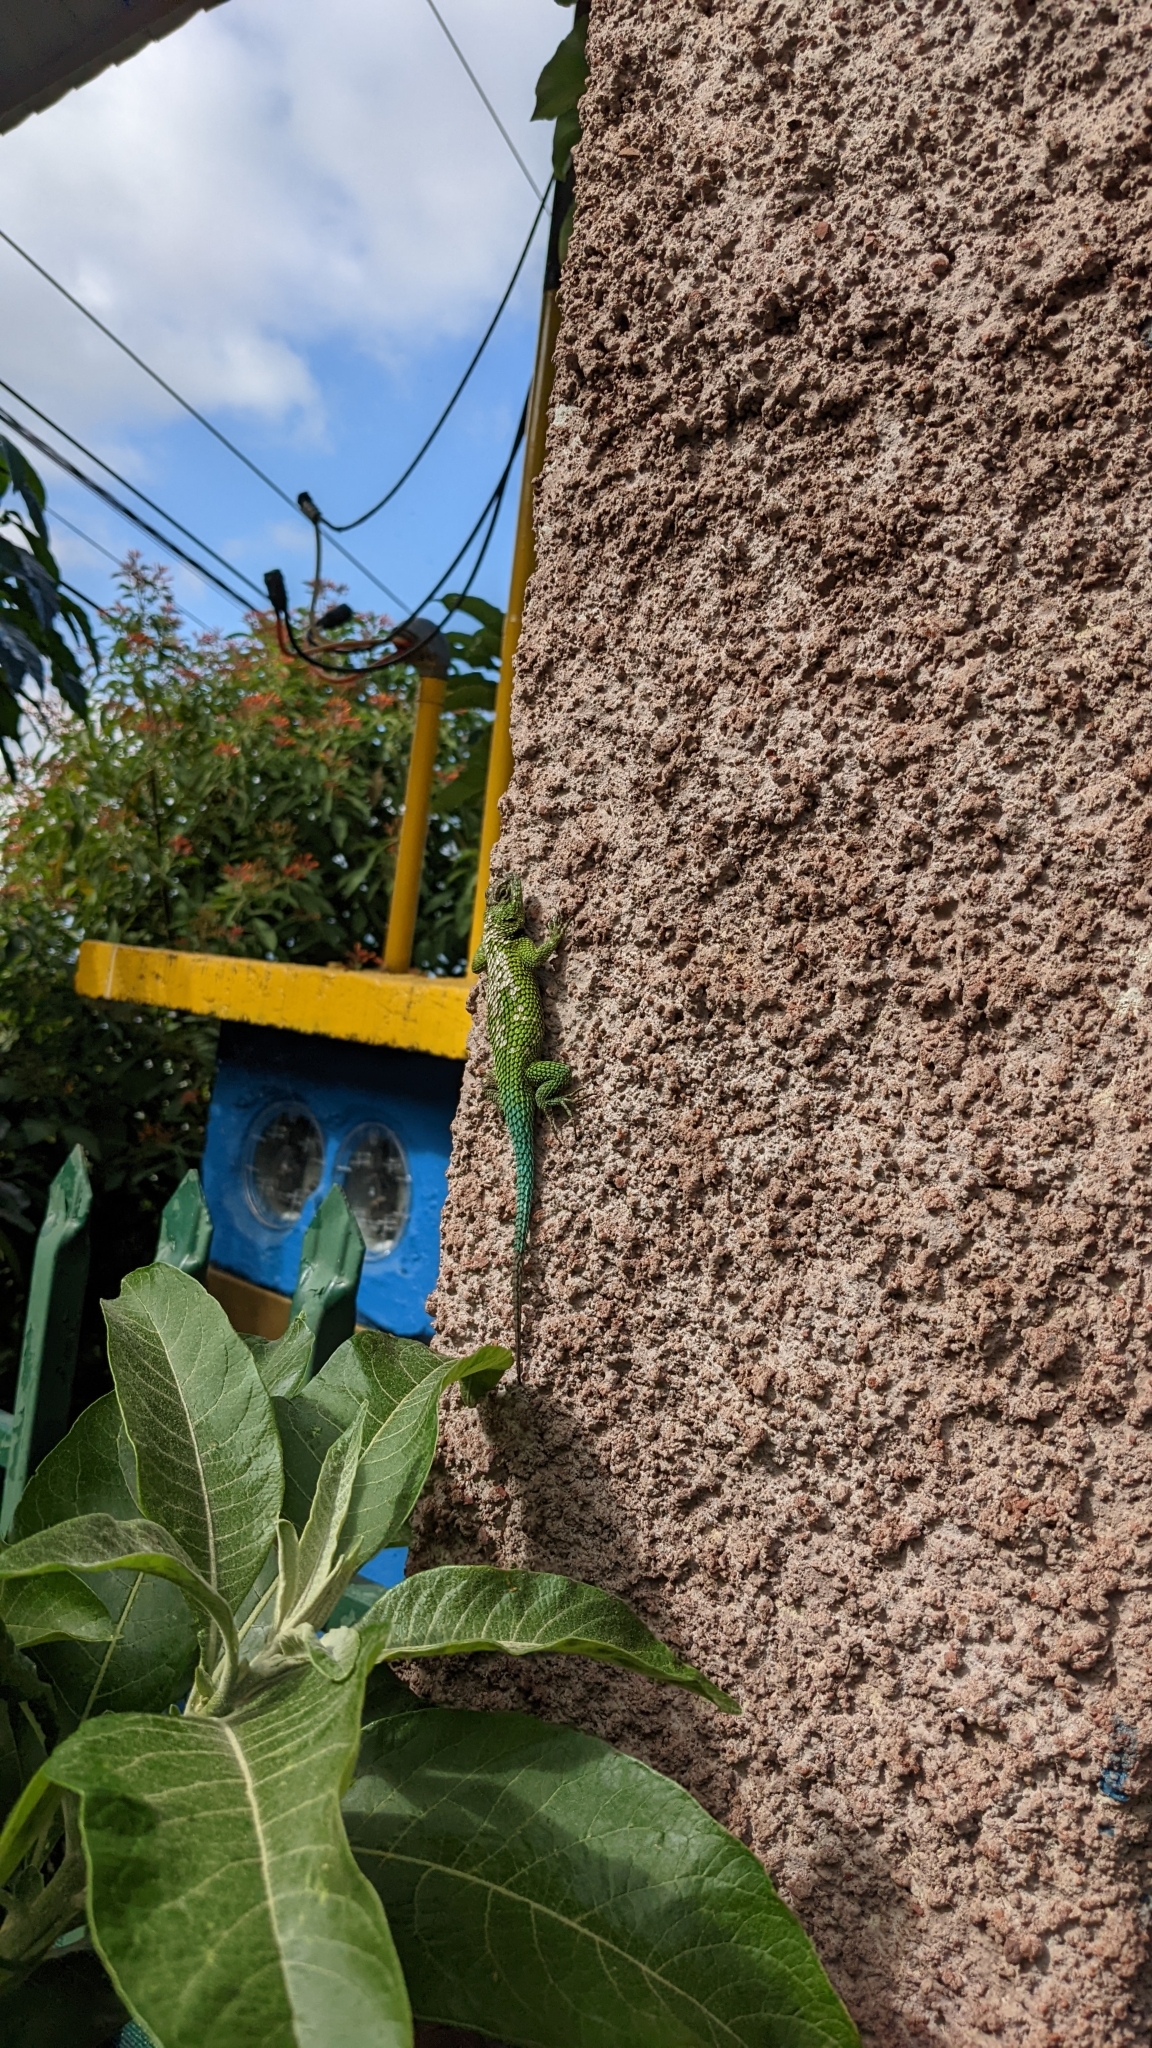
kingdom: Animalia
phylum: Chordata
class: Squamata
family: Phrynosomatidae
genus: Sceloporus
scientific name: Sceloporus malachiticus
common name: Green spiny lizard
